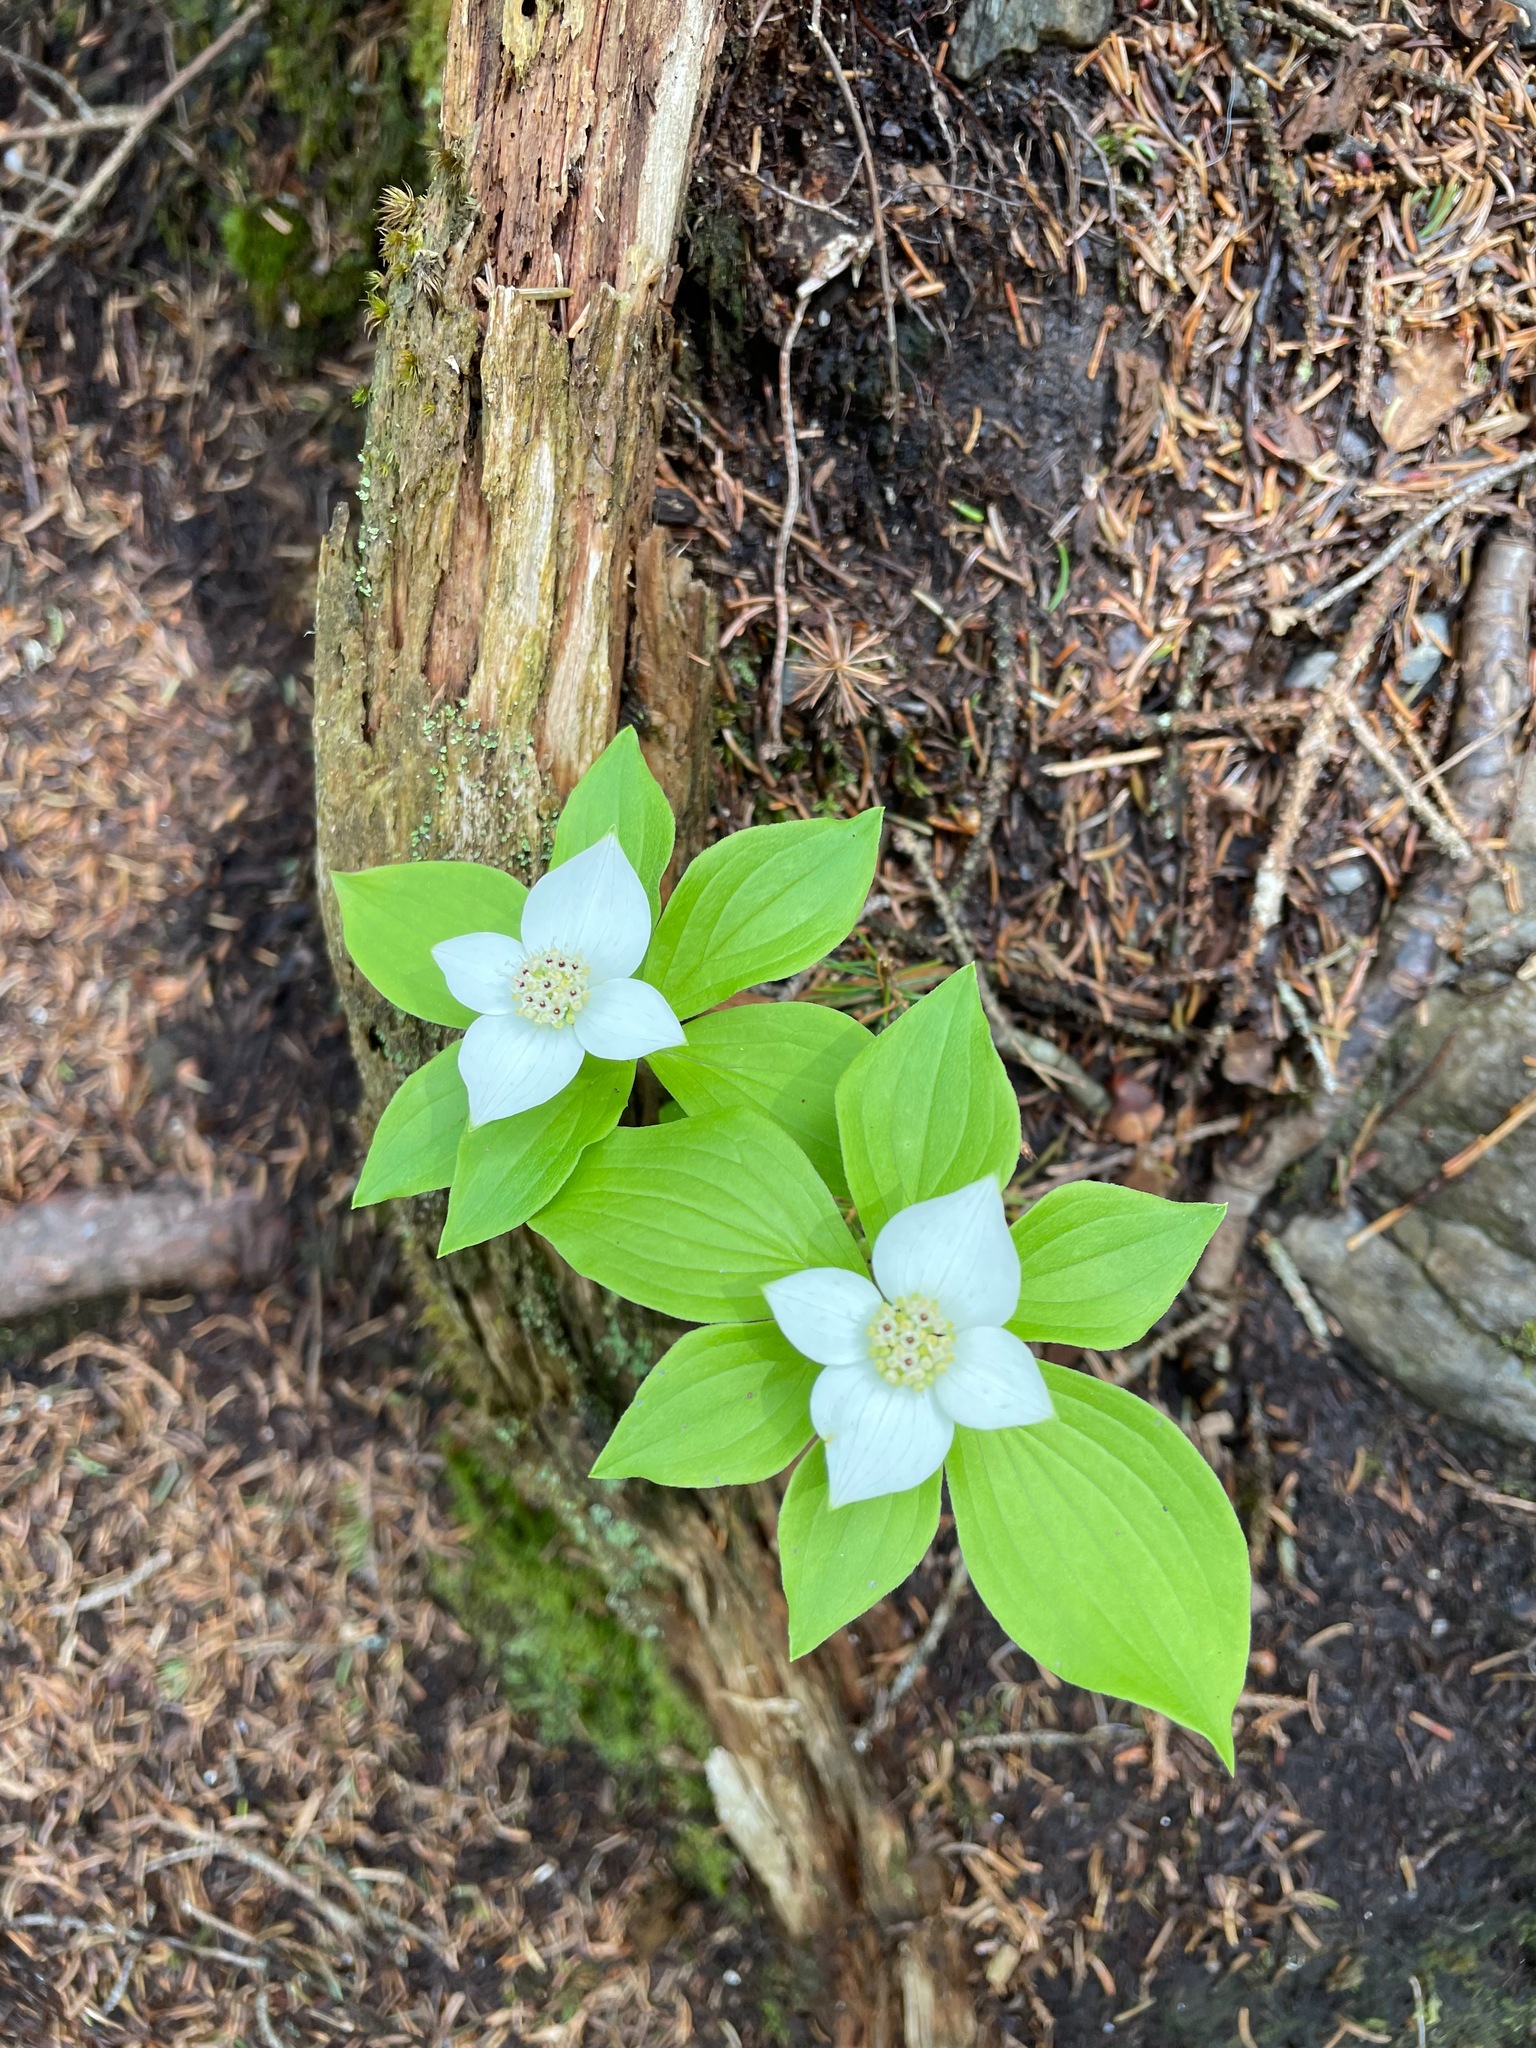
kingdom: Plantae
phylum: Tracheophyta
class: Magnoliopsida
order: Cornales
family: Cornaceae
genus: Cornus
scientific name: Cornus canadensis
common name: Creeping dogwood
